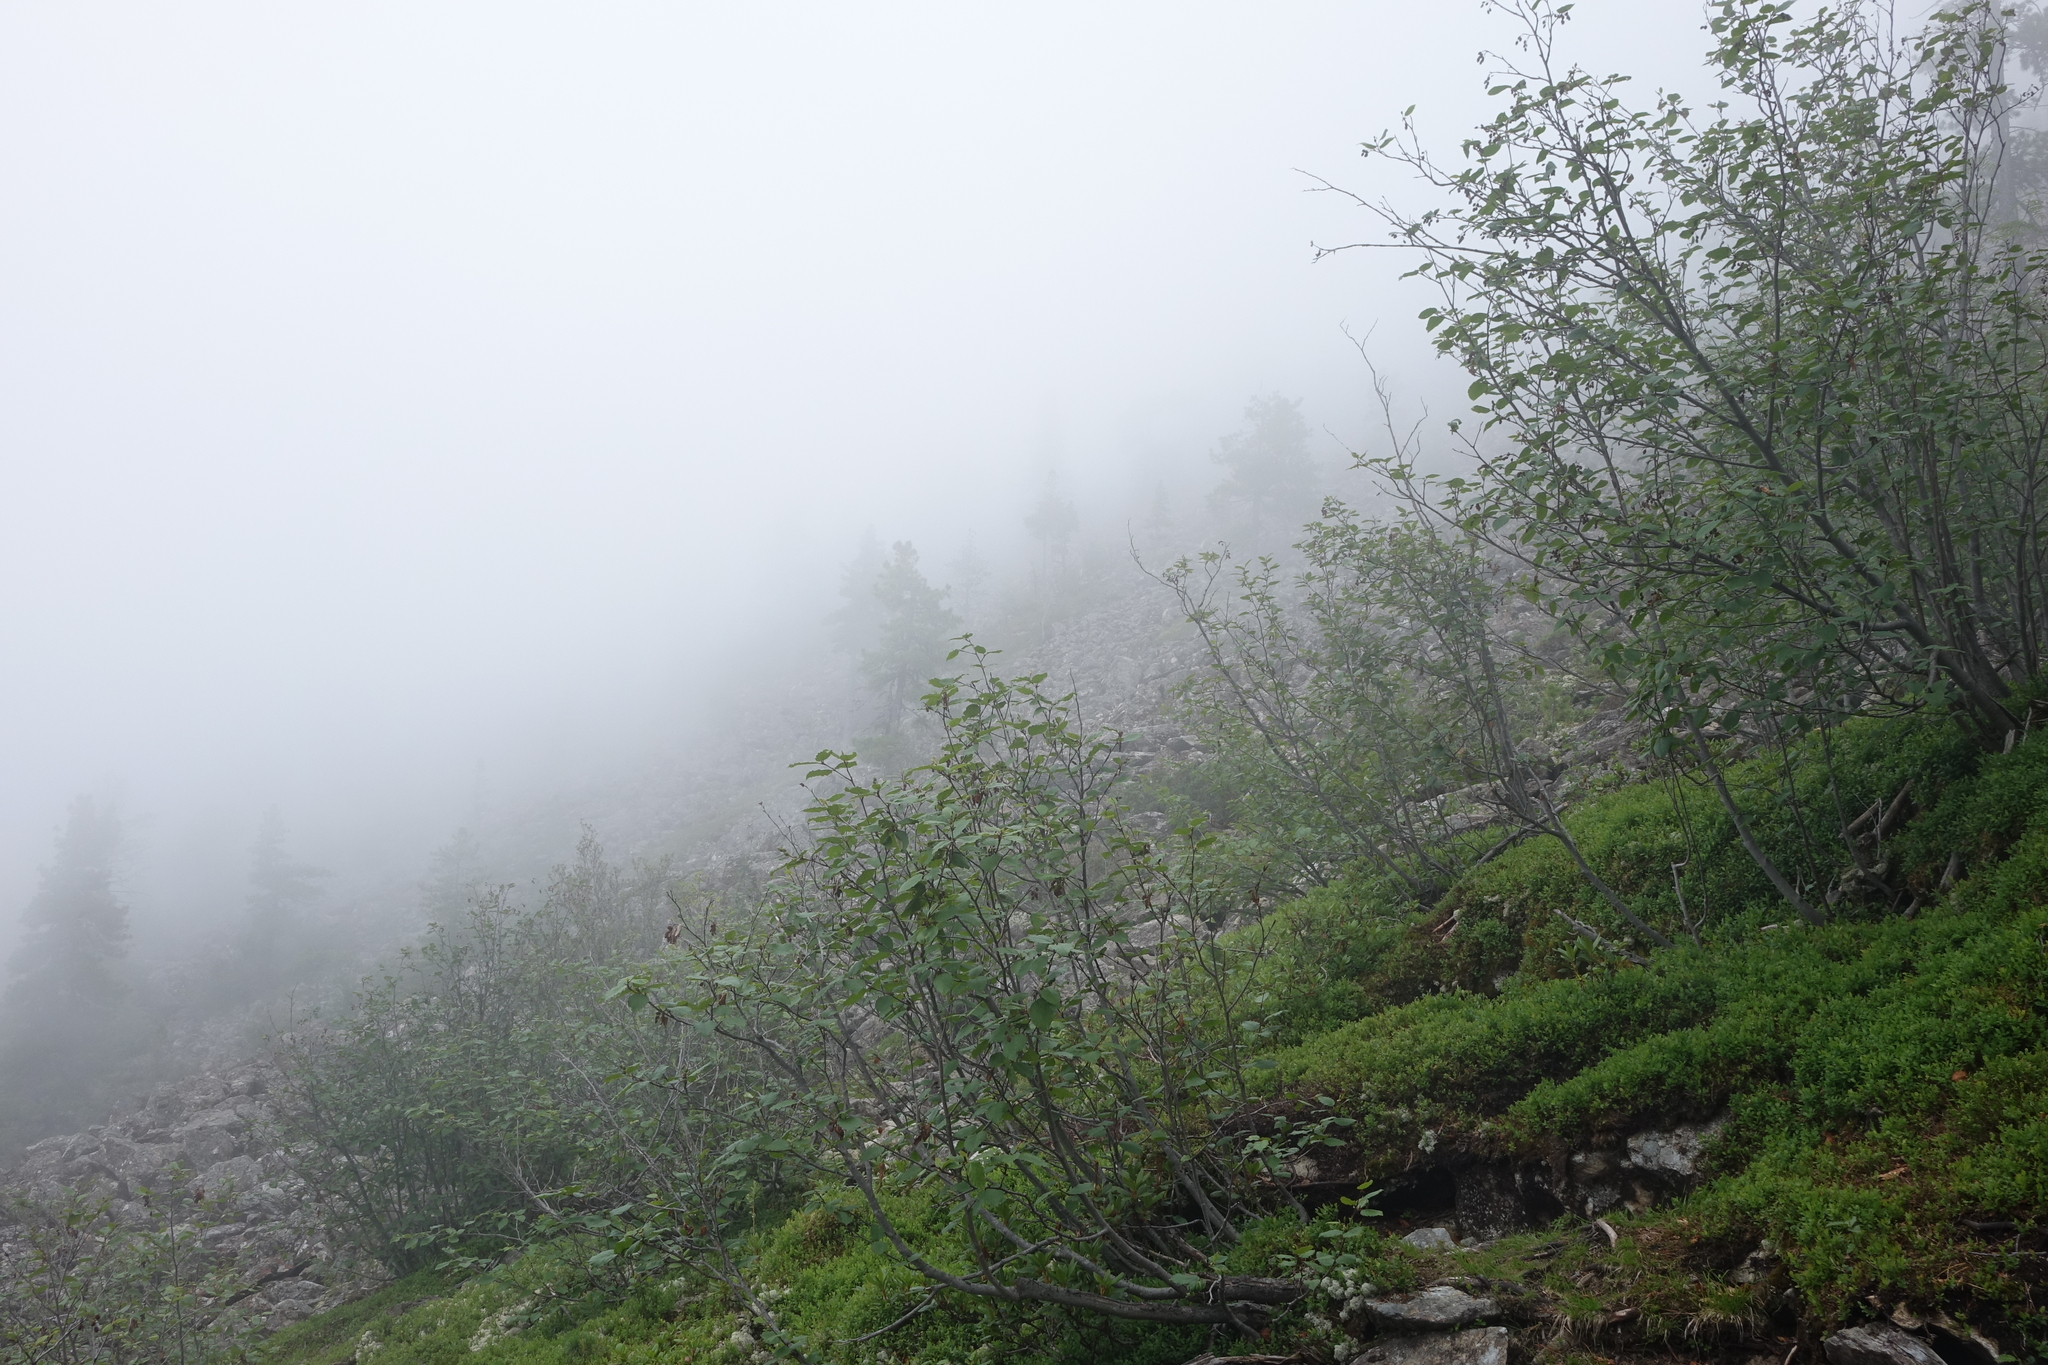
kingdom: Plantae
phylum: Tracheophyta
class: Magnoliopsida
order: Ericales
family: Ericaceae
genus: Rhododendron
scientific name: Rhododendron dauricum
